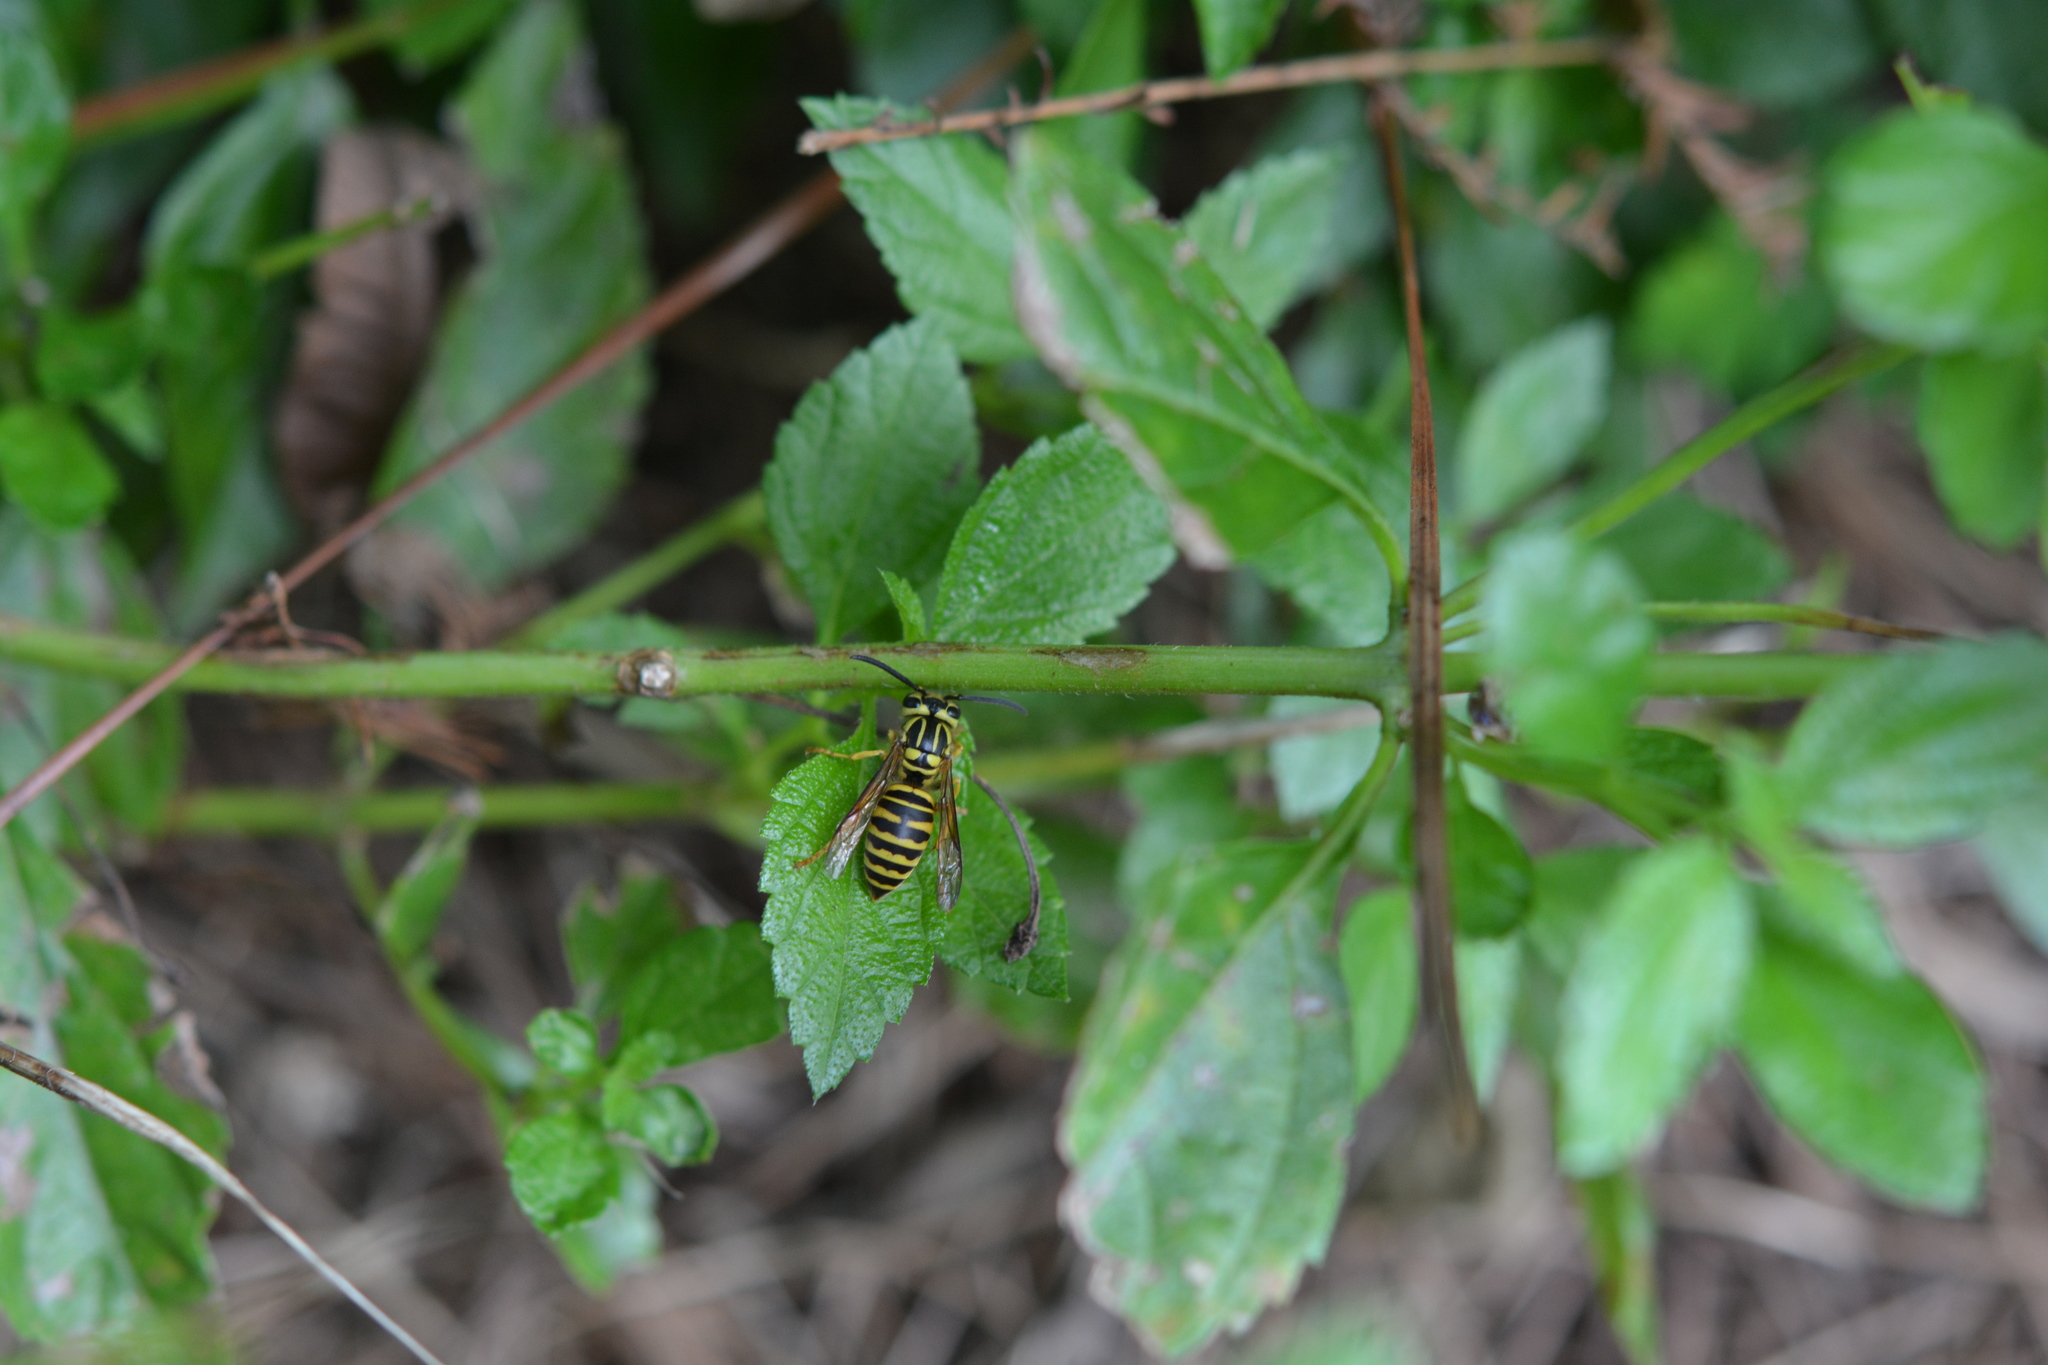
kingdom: Animalia
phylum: Arthropoda
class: Insecta
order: Hymenoptera
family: Vespidae
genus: Vespula
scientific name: Vespula squamosa
